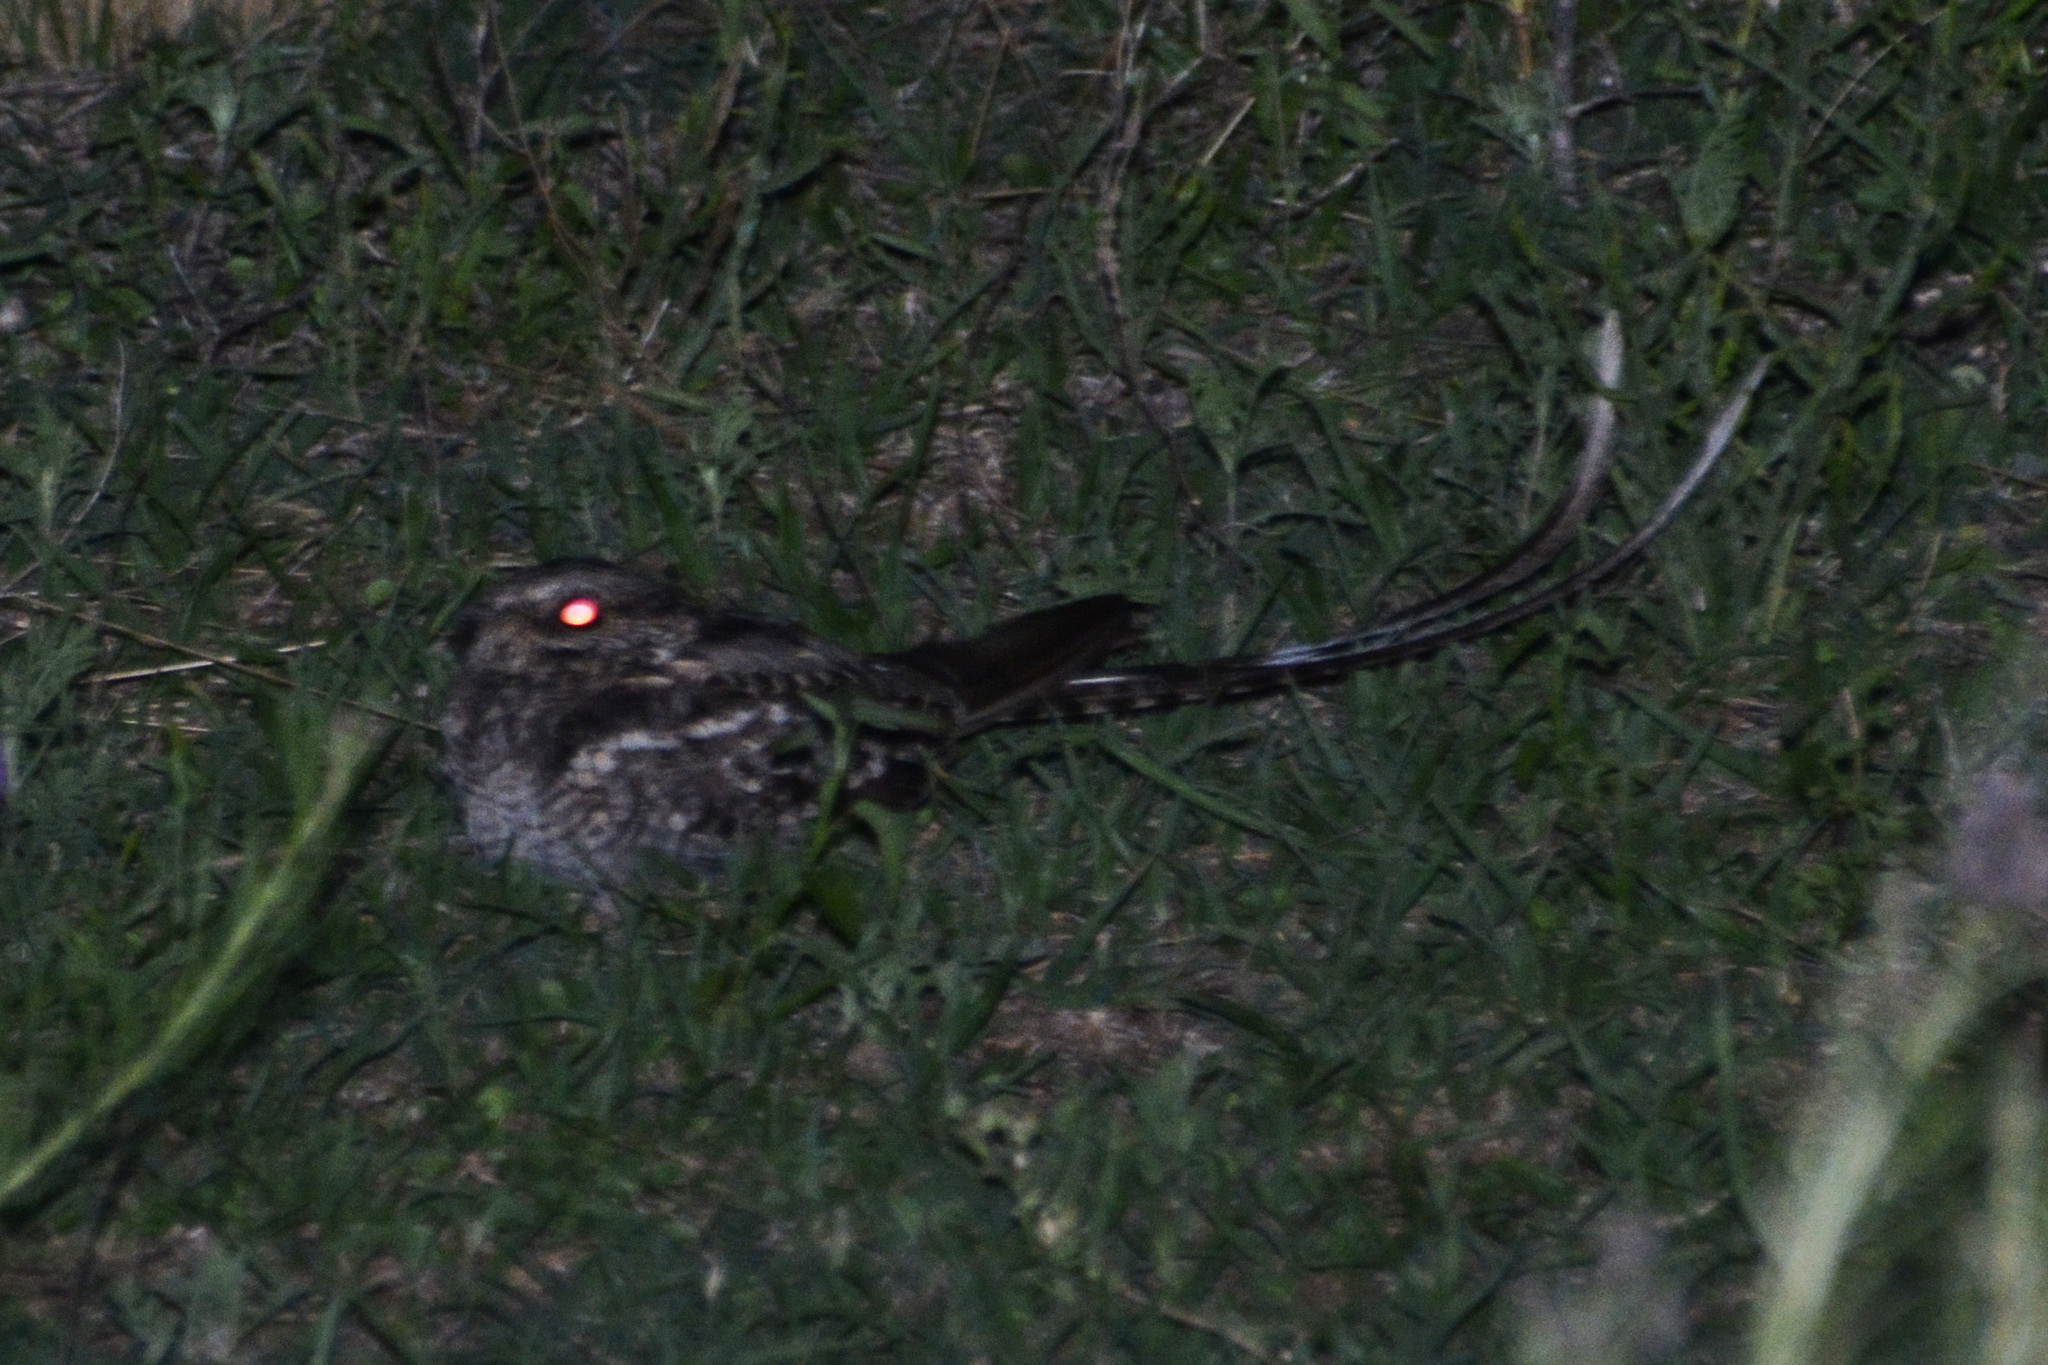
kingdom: Animalia
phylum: Chordata
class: Aves
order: Caprimulgiformes
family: Caprimulgidae
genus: Hydropsalis
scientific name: Hydropsalis torquata
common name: Scissor-tailed nightjar
